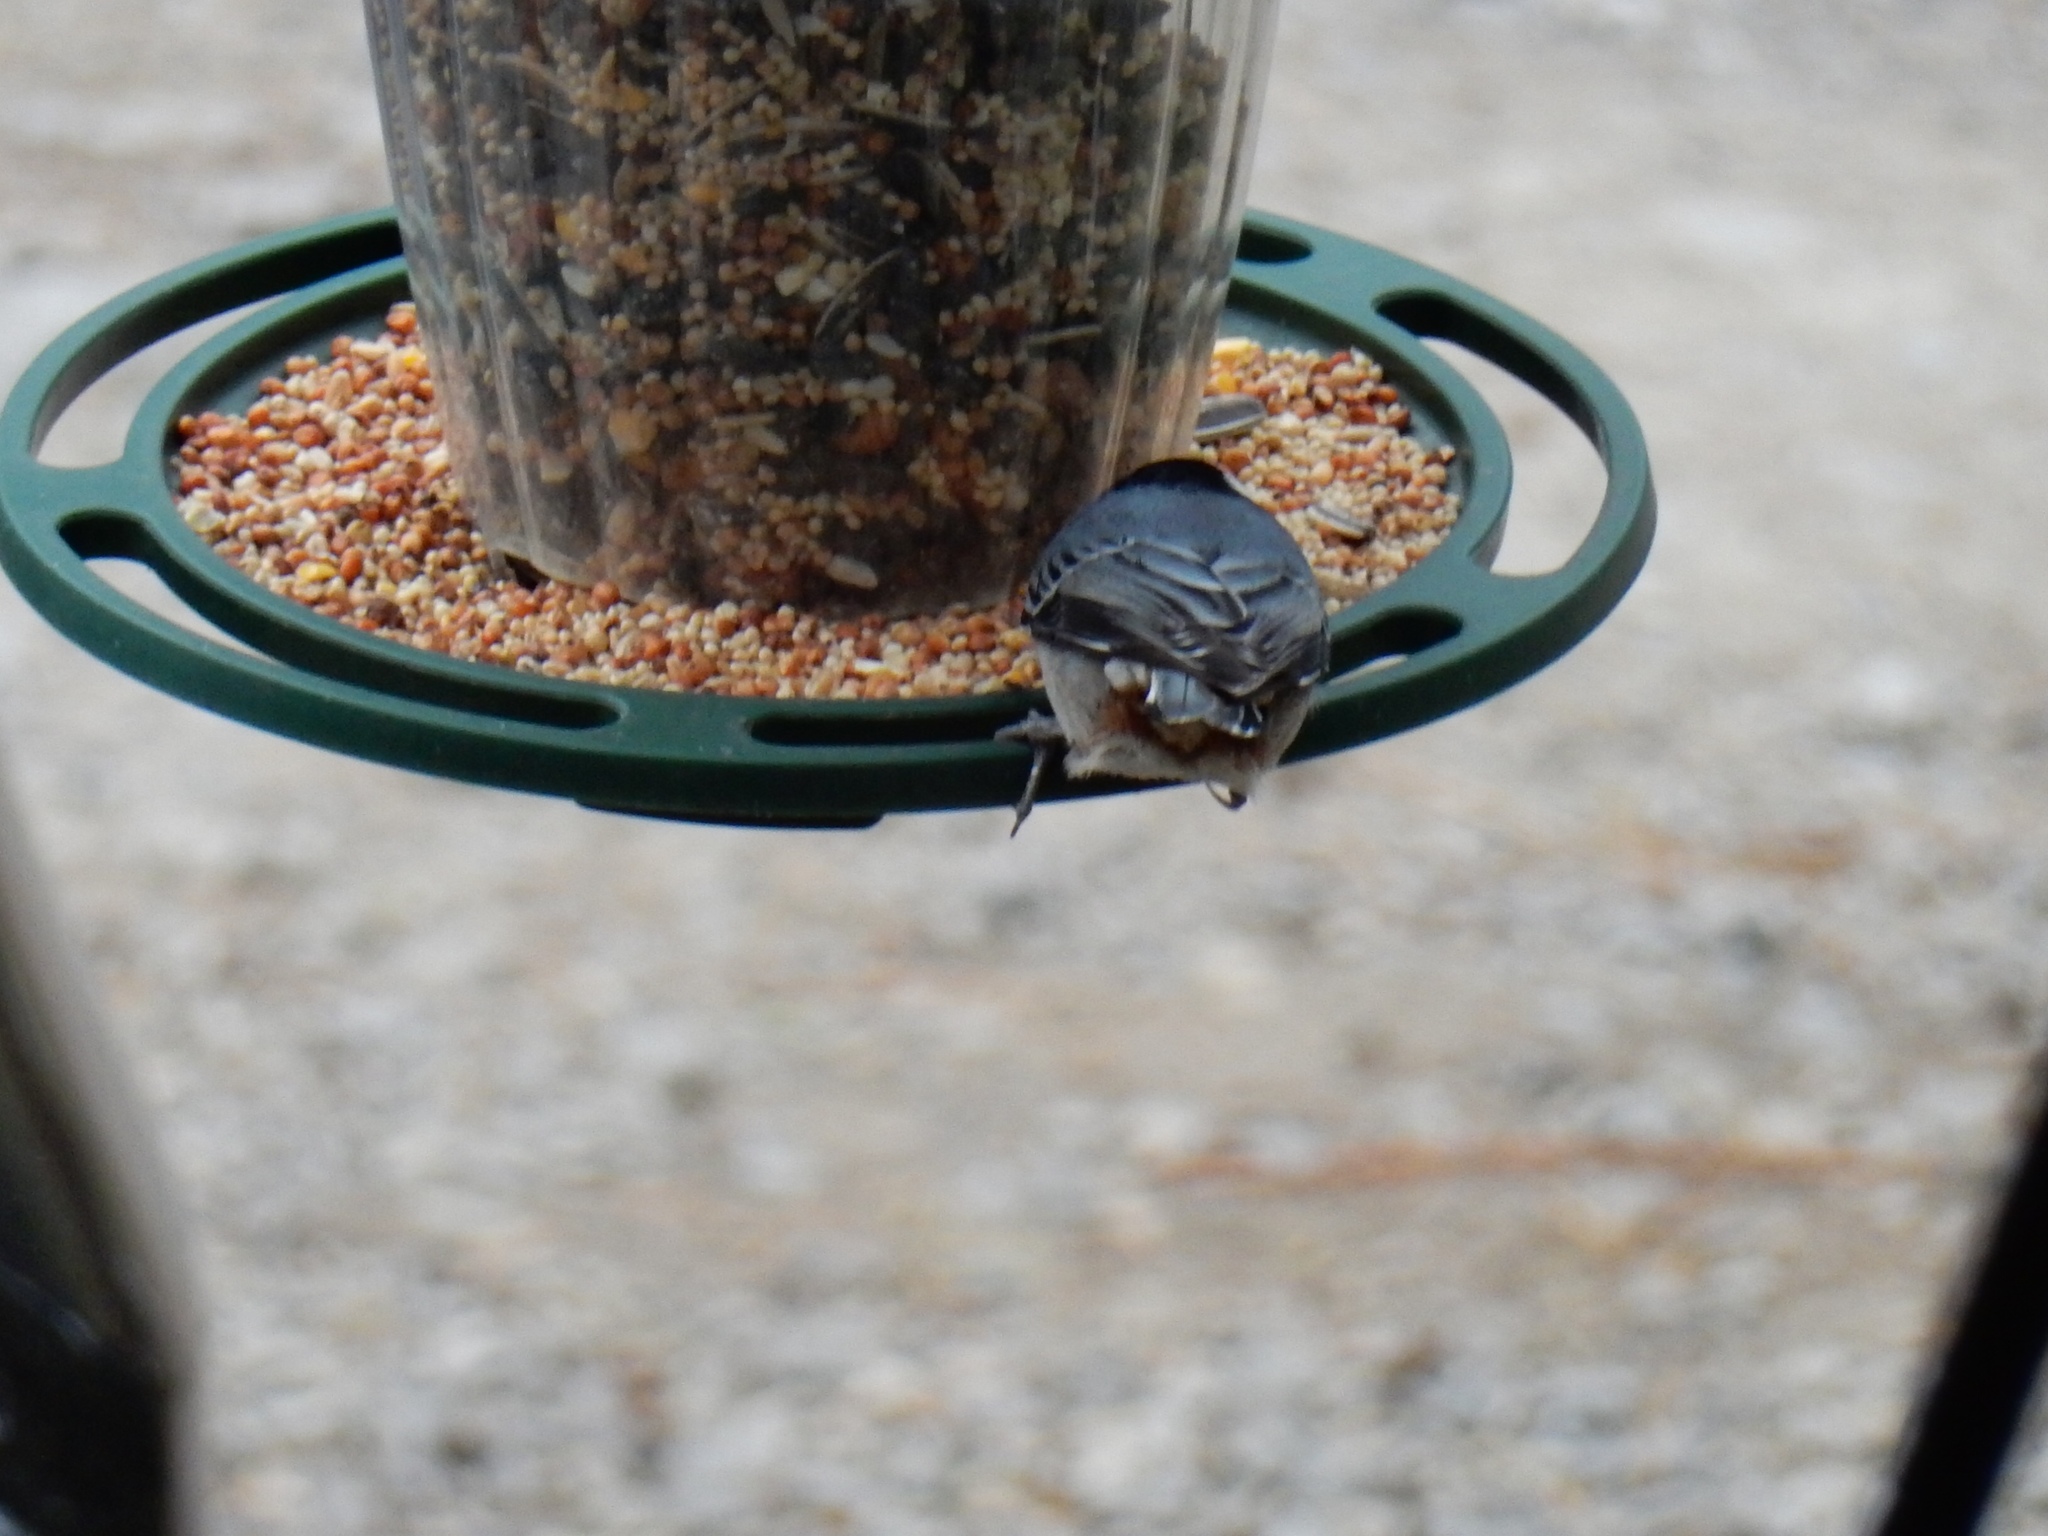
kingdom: Animalia
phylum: Chordata
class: Aves
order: Passeriformes
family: Sittidae
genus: Sitta
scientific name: Sitta carolinensis
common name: White-breasted nuthatch
